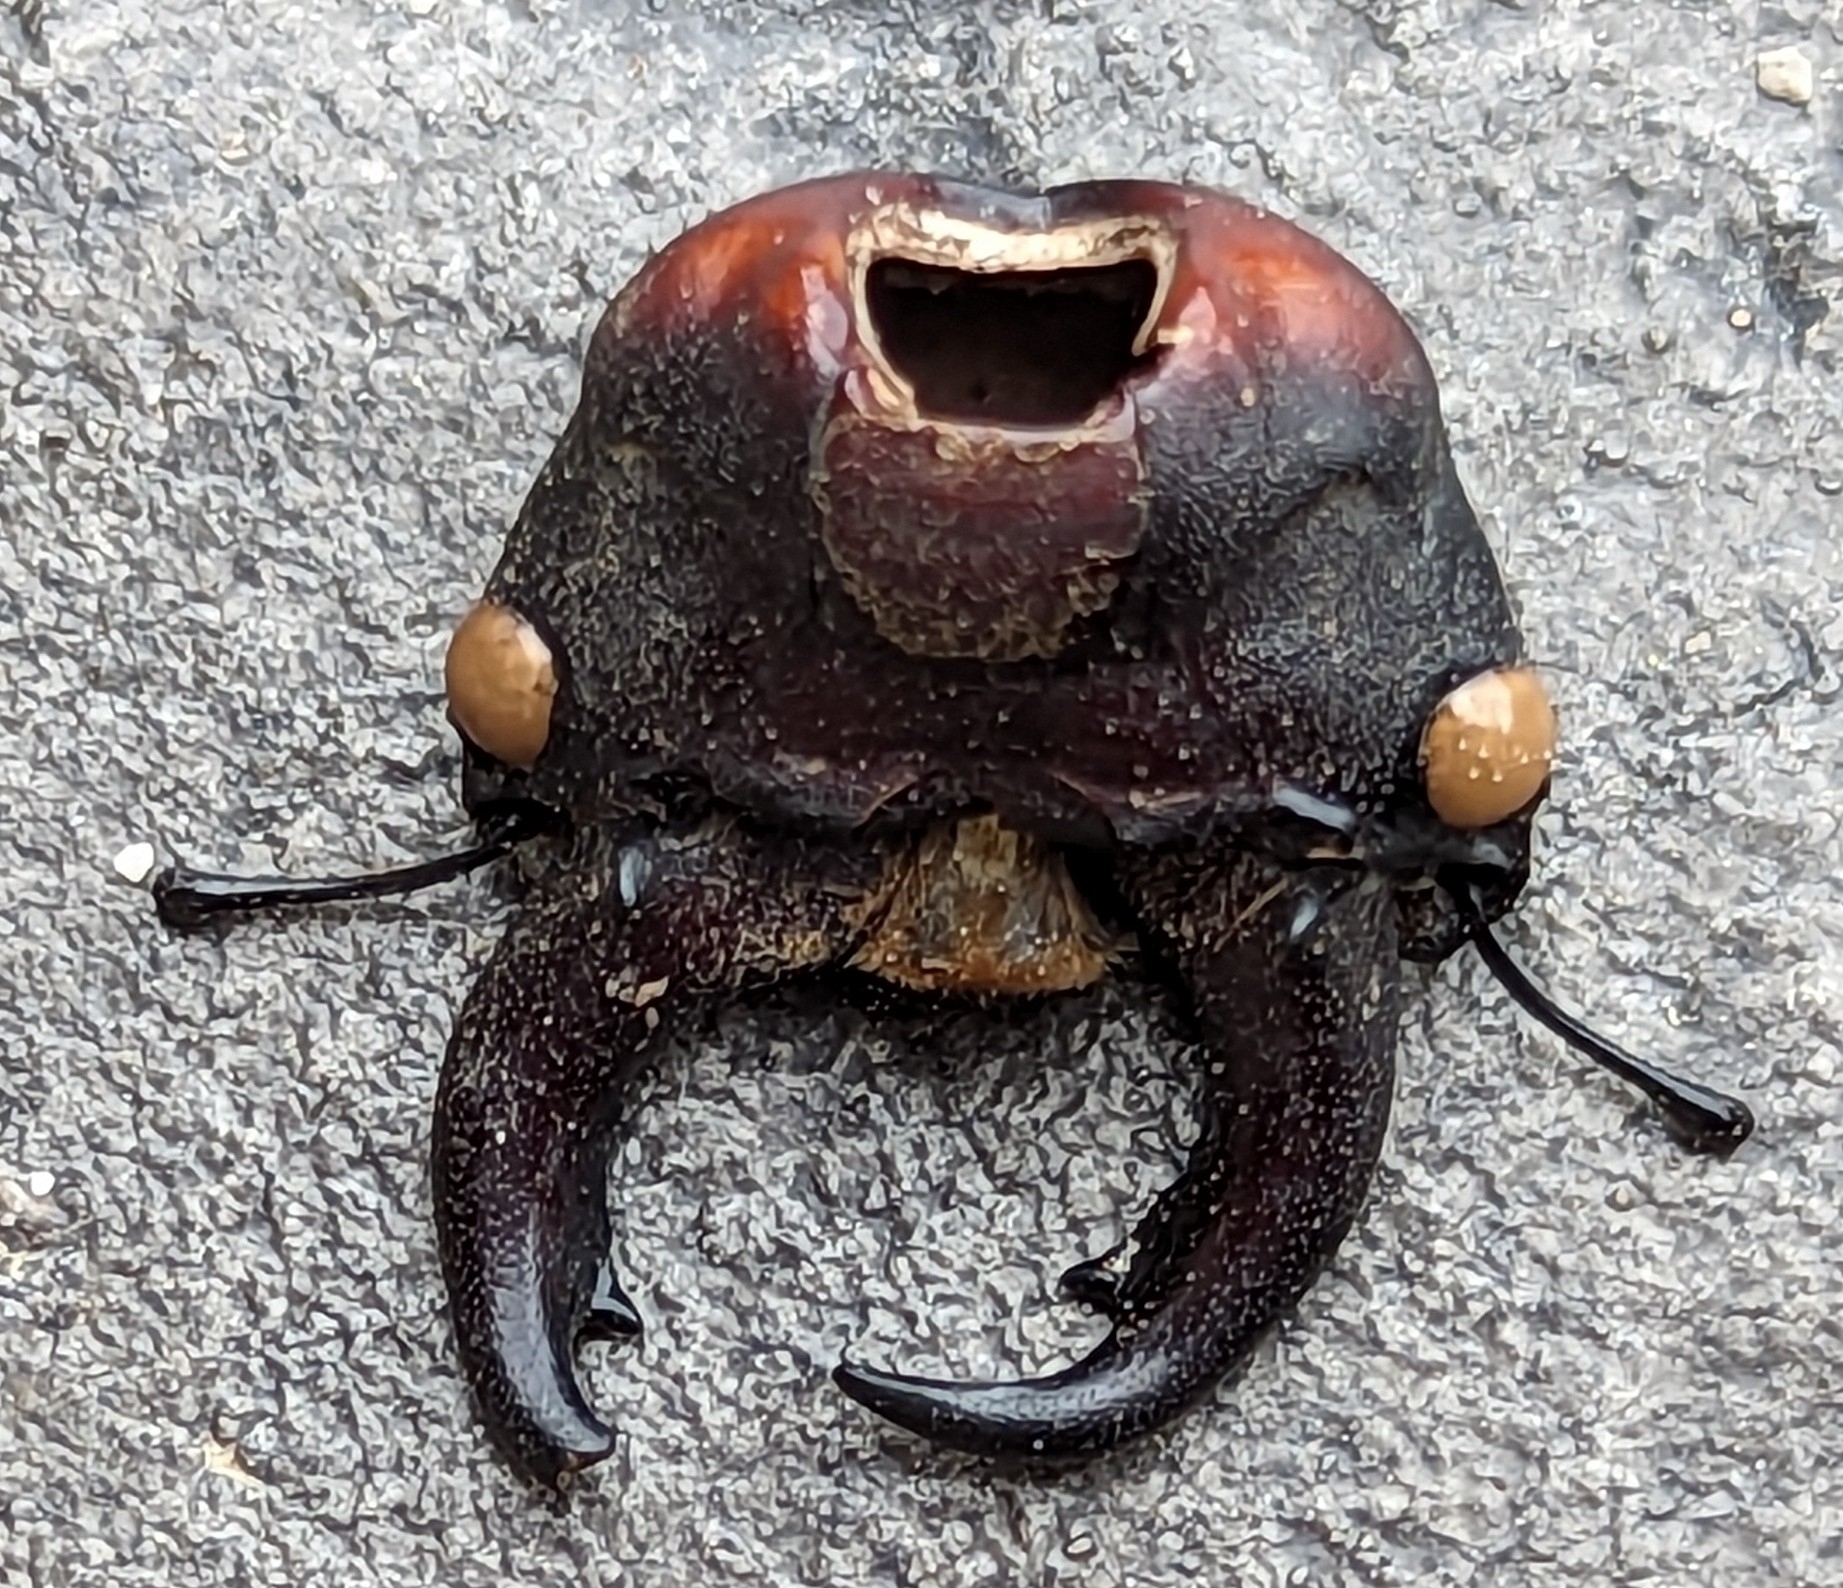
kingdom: Animalia
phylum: Arthropoda
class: Insecta
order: Coleoptera
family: Lucanidae
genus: Lucanus
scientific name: Lucanus capreolus
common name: Stag beetle
